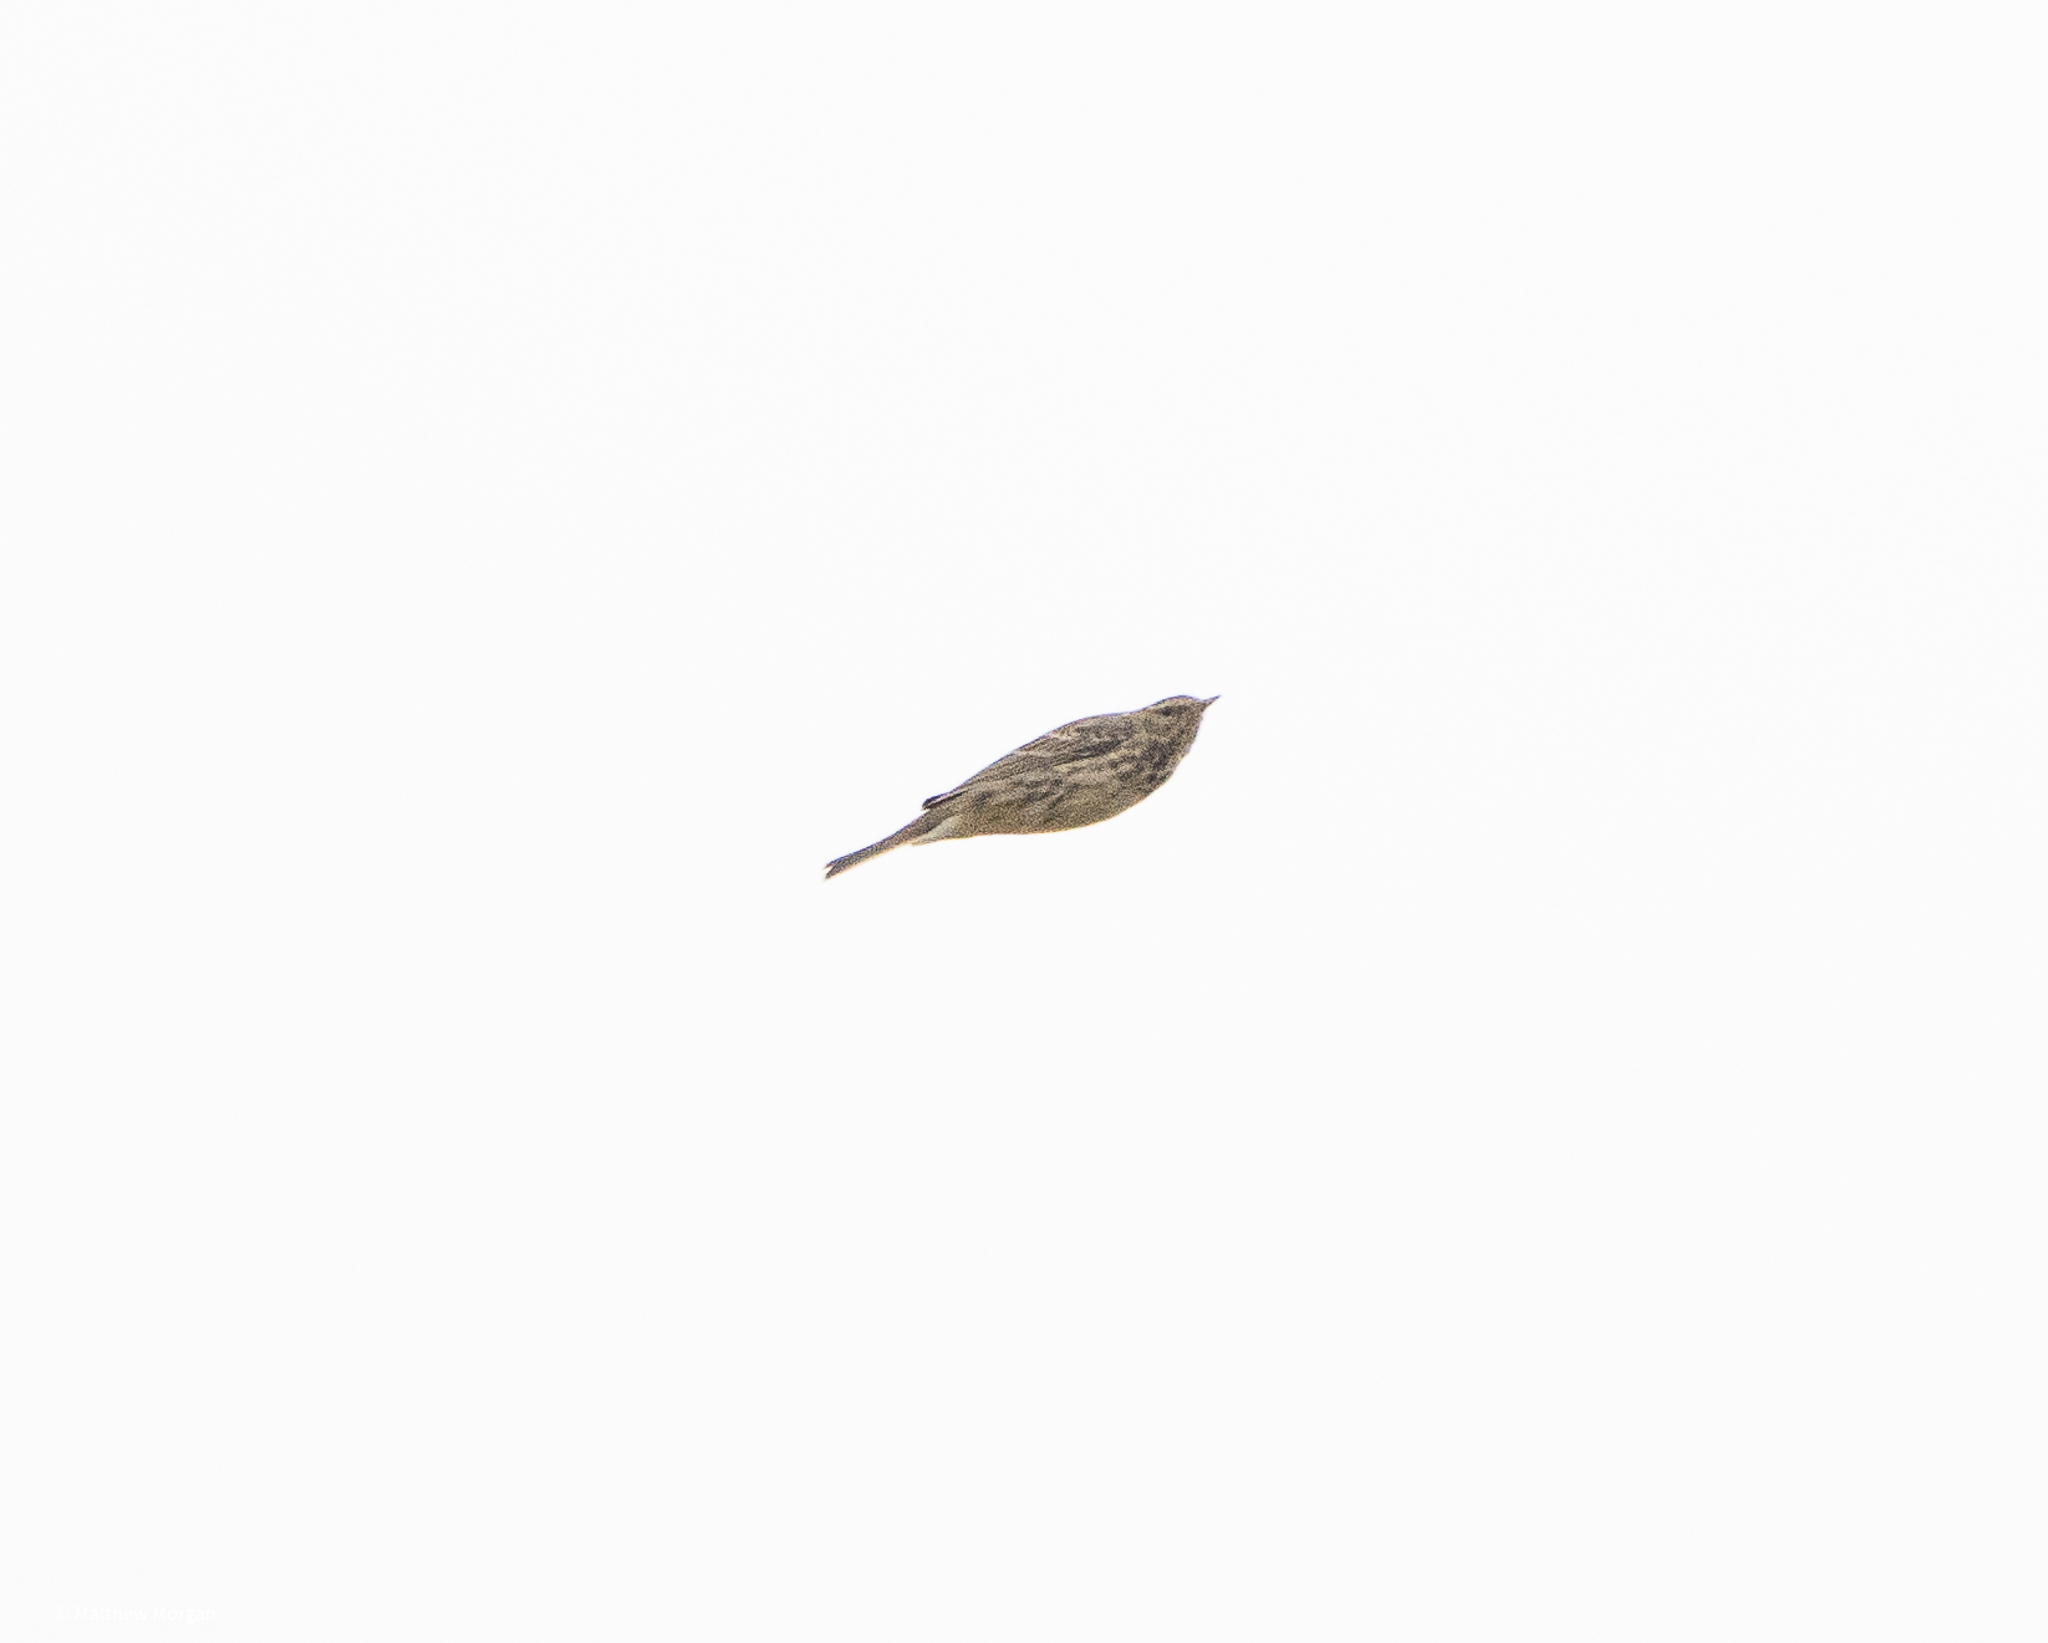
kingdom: Animalia
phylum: Chordata
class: Aves
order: Passeriformes
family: Motacillidae
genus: Anthus
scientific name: Anthus pratensis
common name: Meadow pipit
